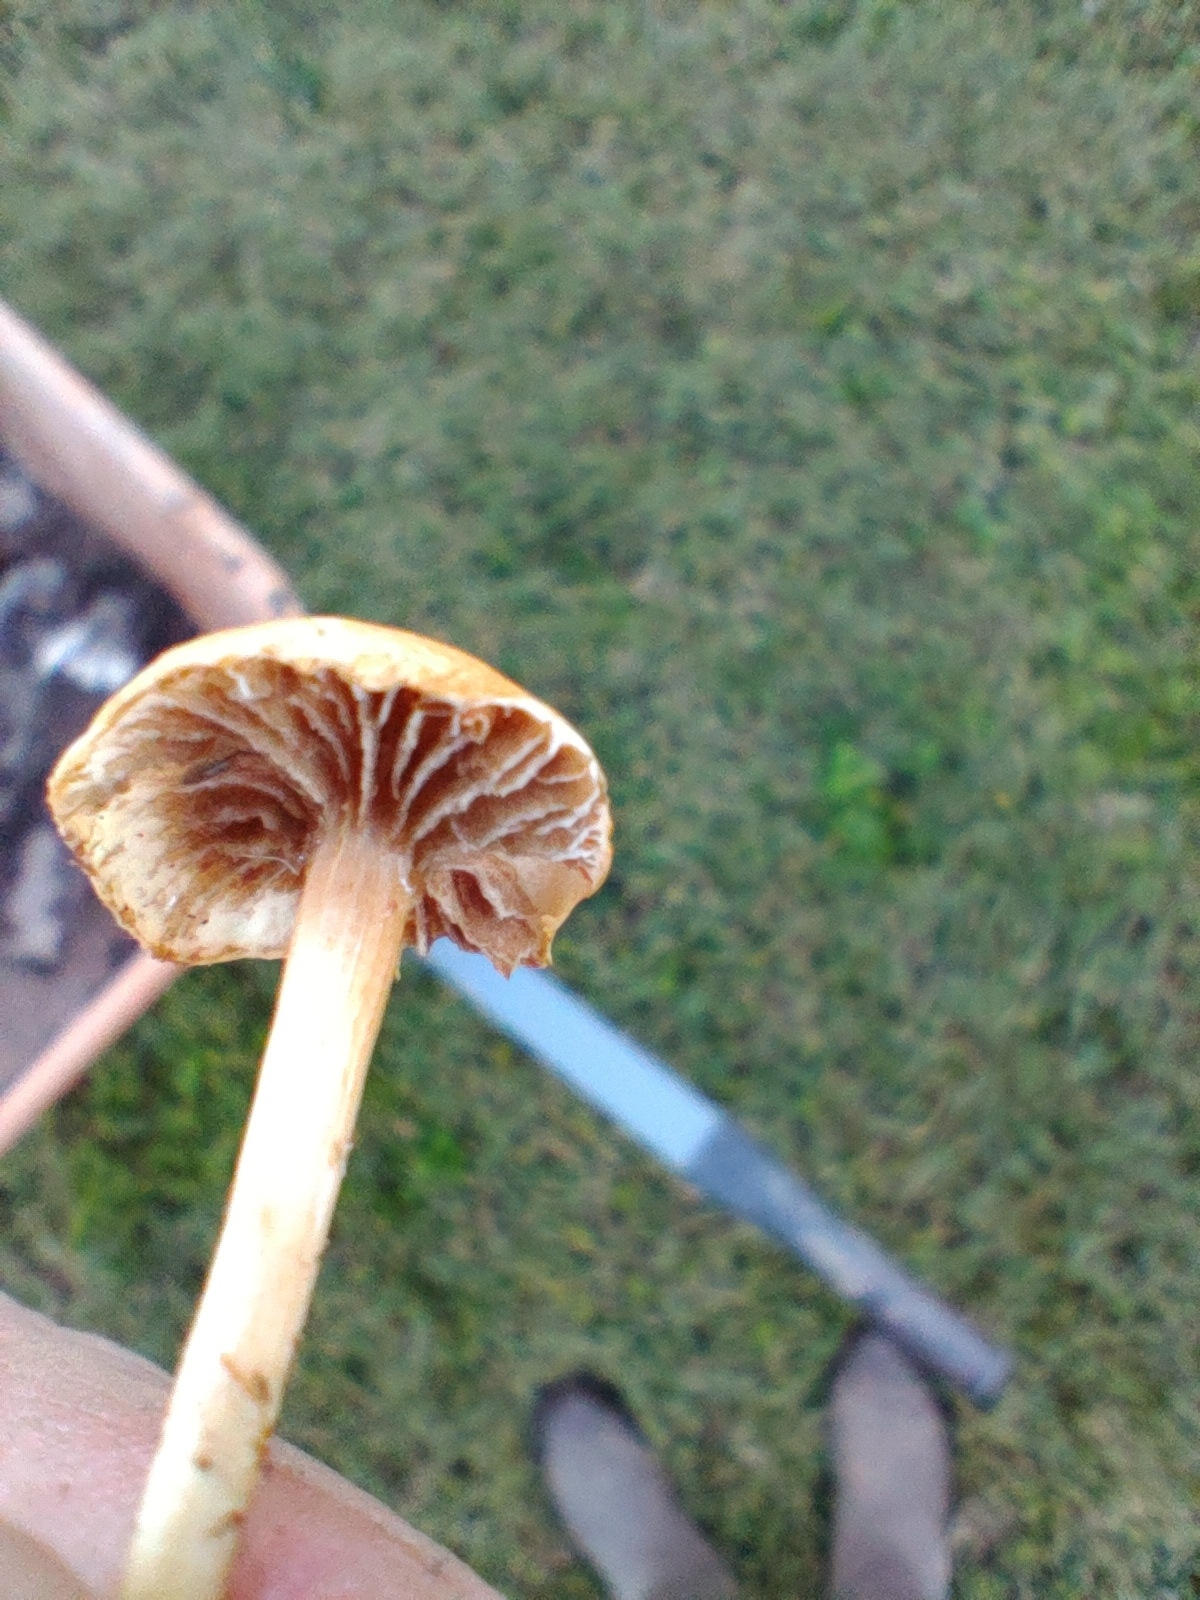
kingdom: Fungi
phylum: Basidiomycota
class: Agaricomycetes
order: Agaricales
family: Strophariaceae
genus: Agrocybe
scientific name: Agrocybe pediades
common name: Common fieldcap
